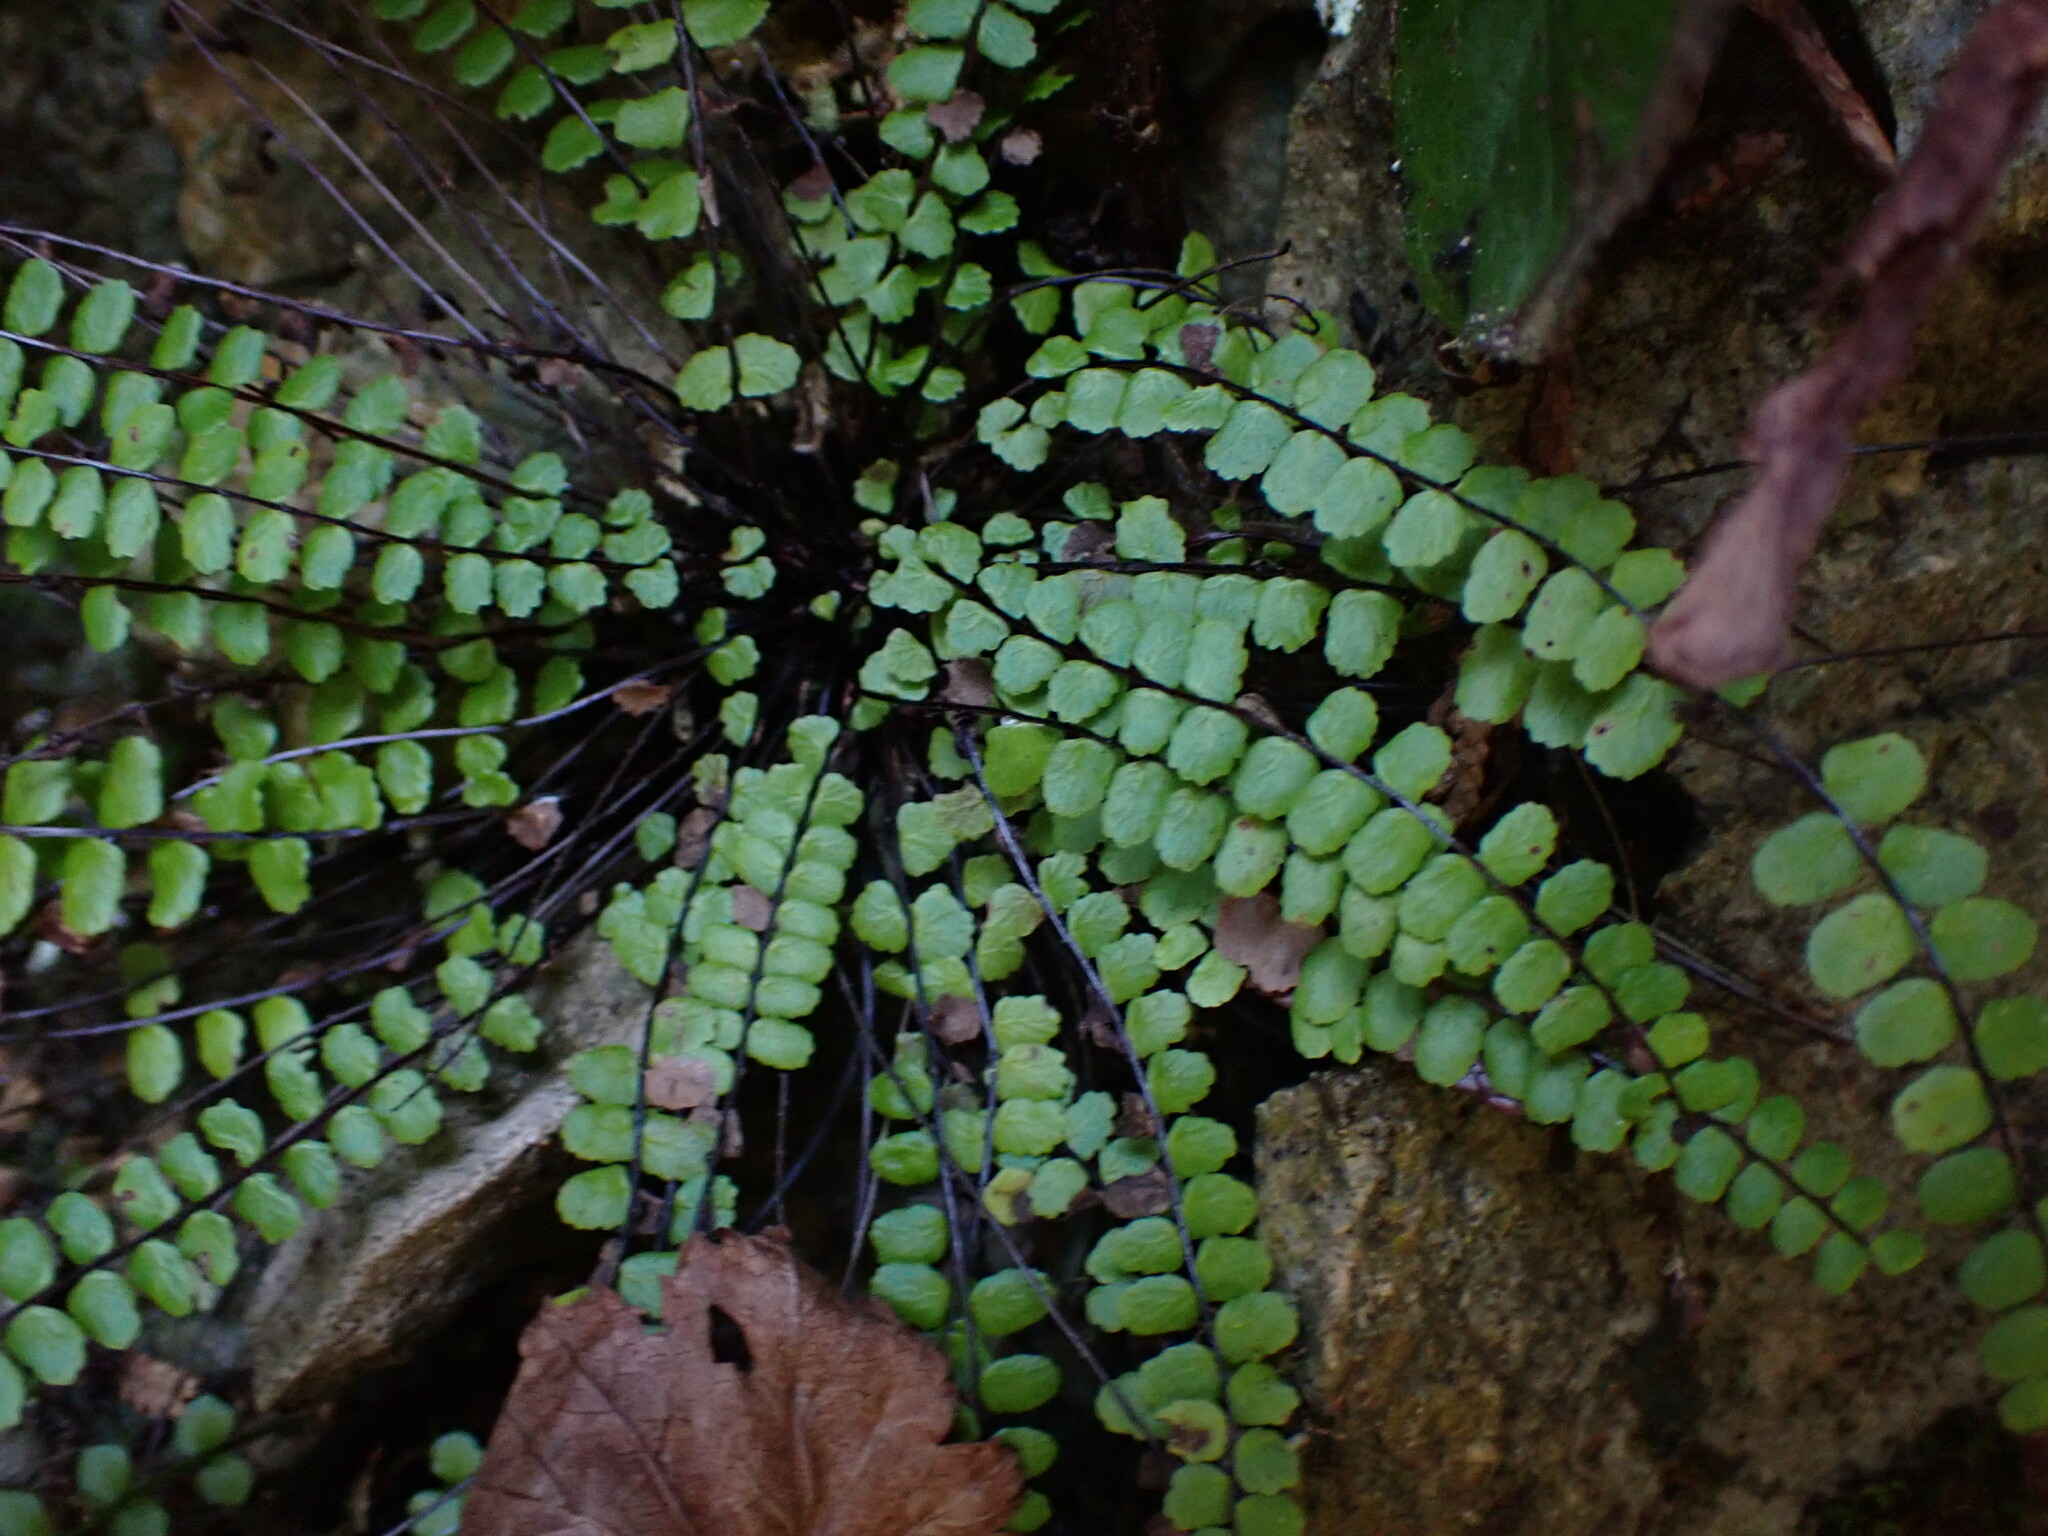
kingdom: Plantae
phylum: Tracheophyta
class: Polypodiopsida
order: Polypodiales
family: Aspleniaceae
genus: Asplenium
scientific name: Asplenium trichomanes
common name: Maidenhair spleenwort
